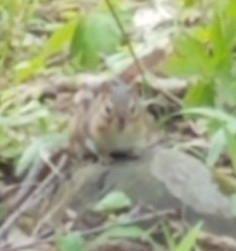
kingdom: Animalia
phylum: Chordata
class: Mammalia
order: Rodentia
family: Sciuridae
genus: Tamias
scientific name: Tamias striatus
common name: Eastern chipmunk
